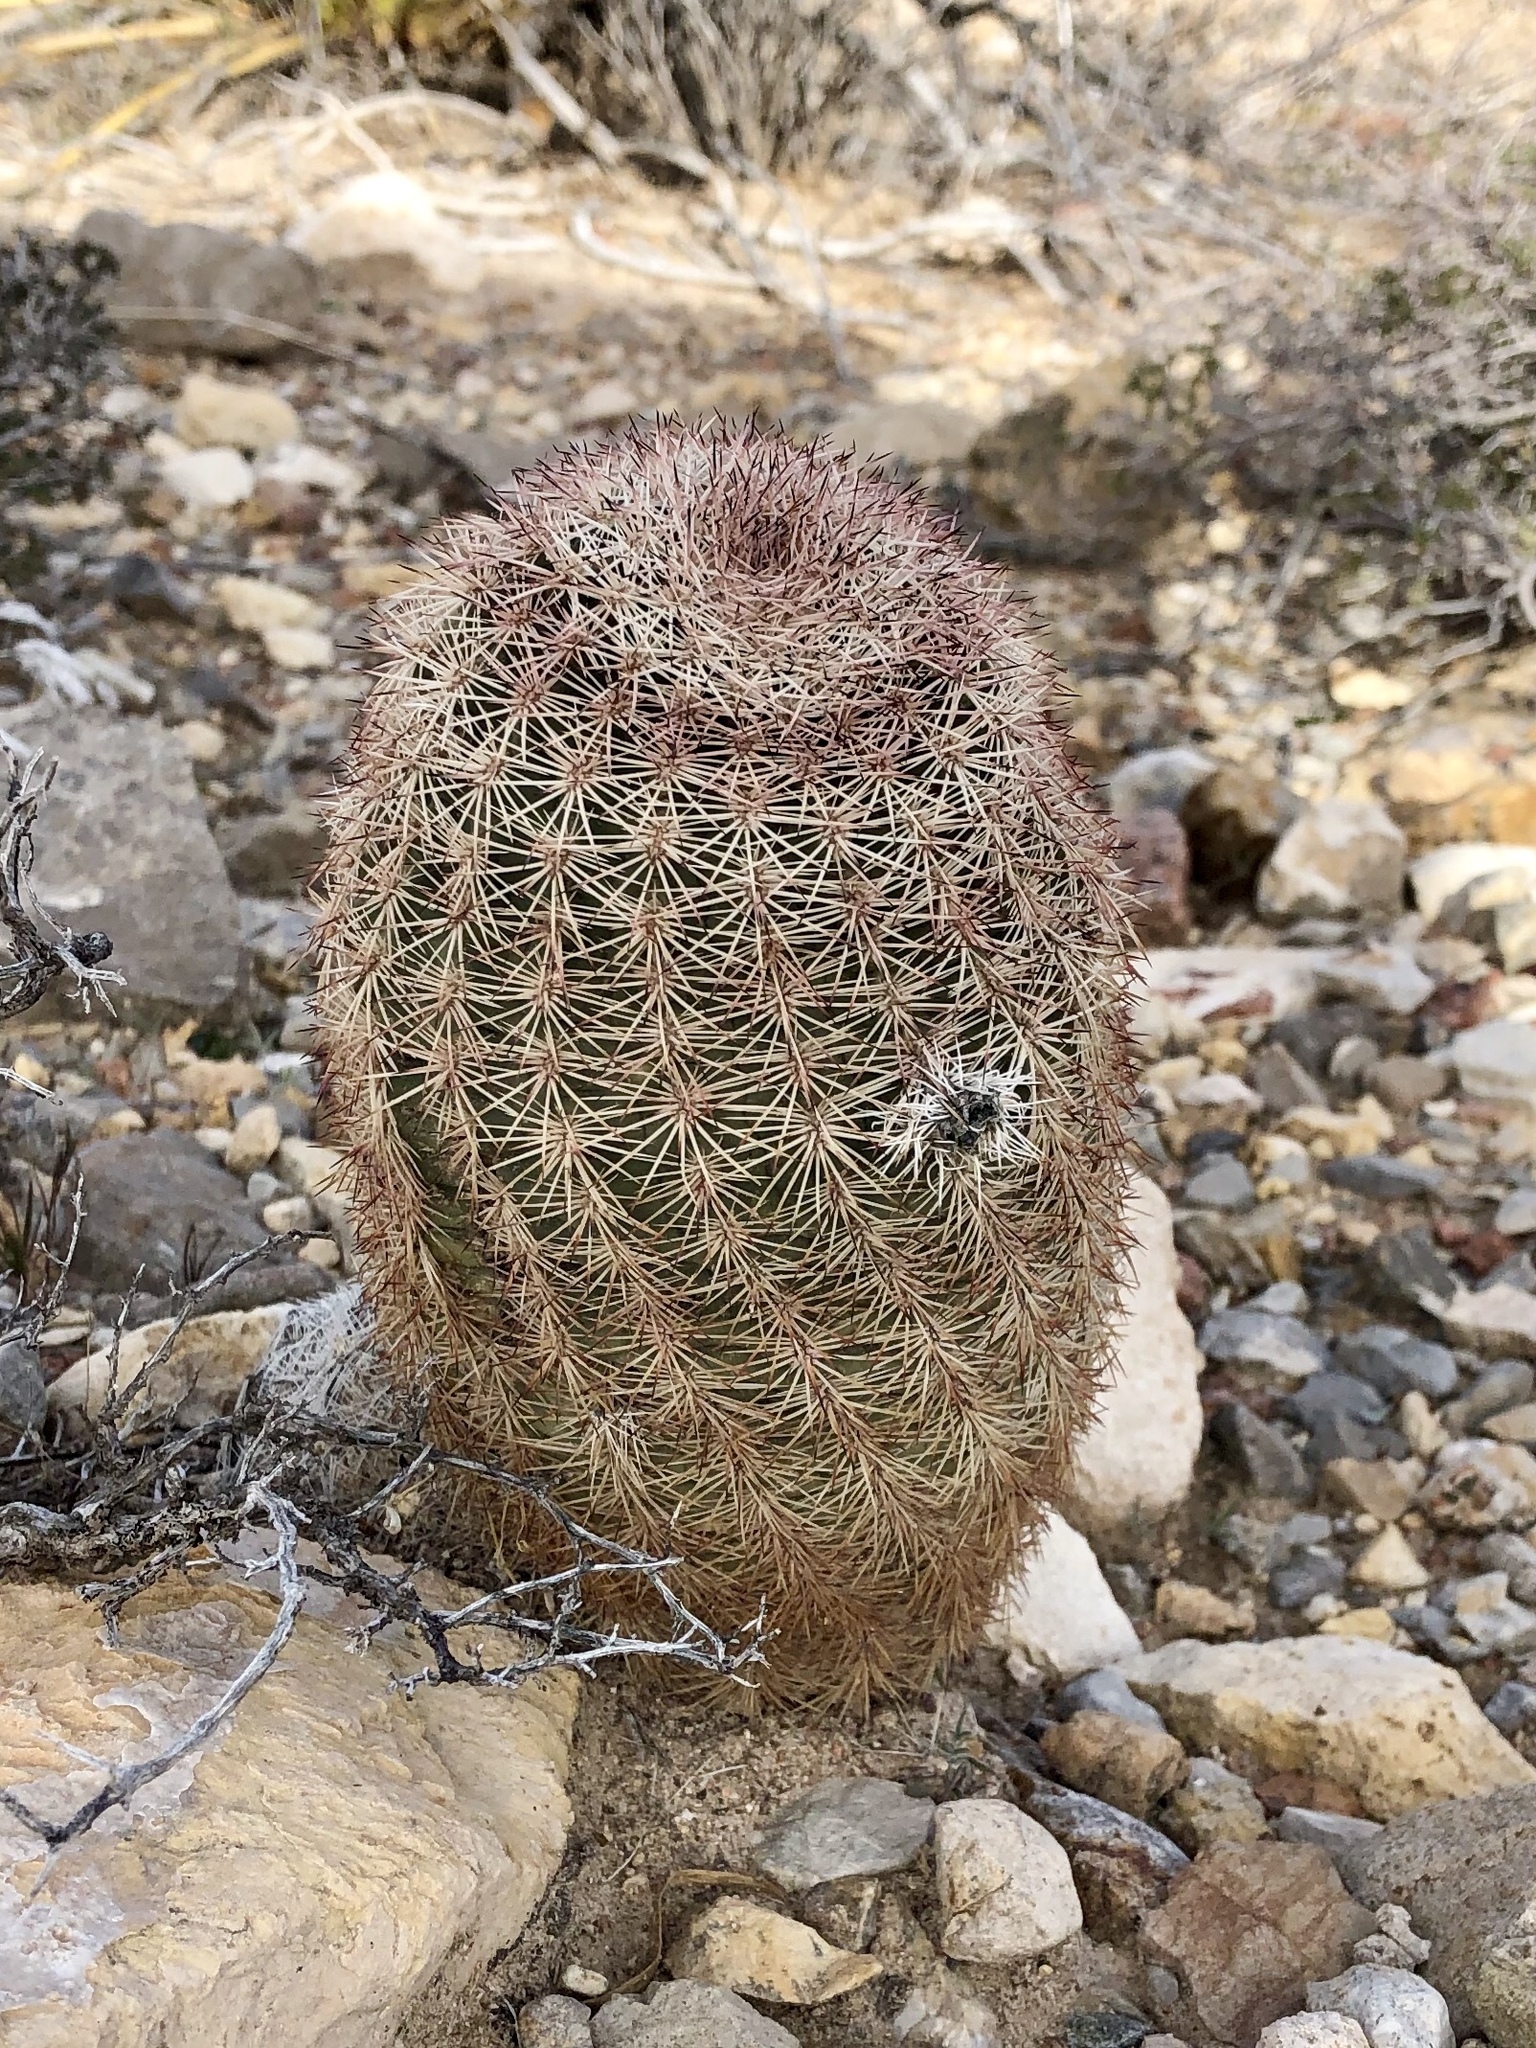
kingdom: Plantae
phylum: Tracheophyta
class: Magnoliopsida
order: Caryophyllales
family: Cactaceae
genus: Echinocereus
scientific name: Echinocereus dasyacanthus
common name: Spiny hedgehog cactus
